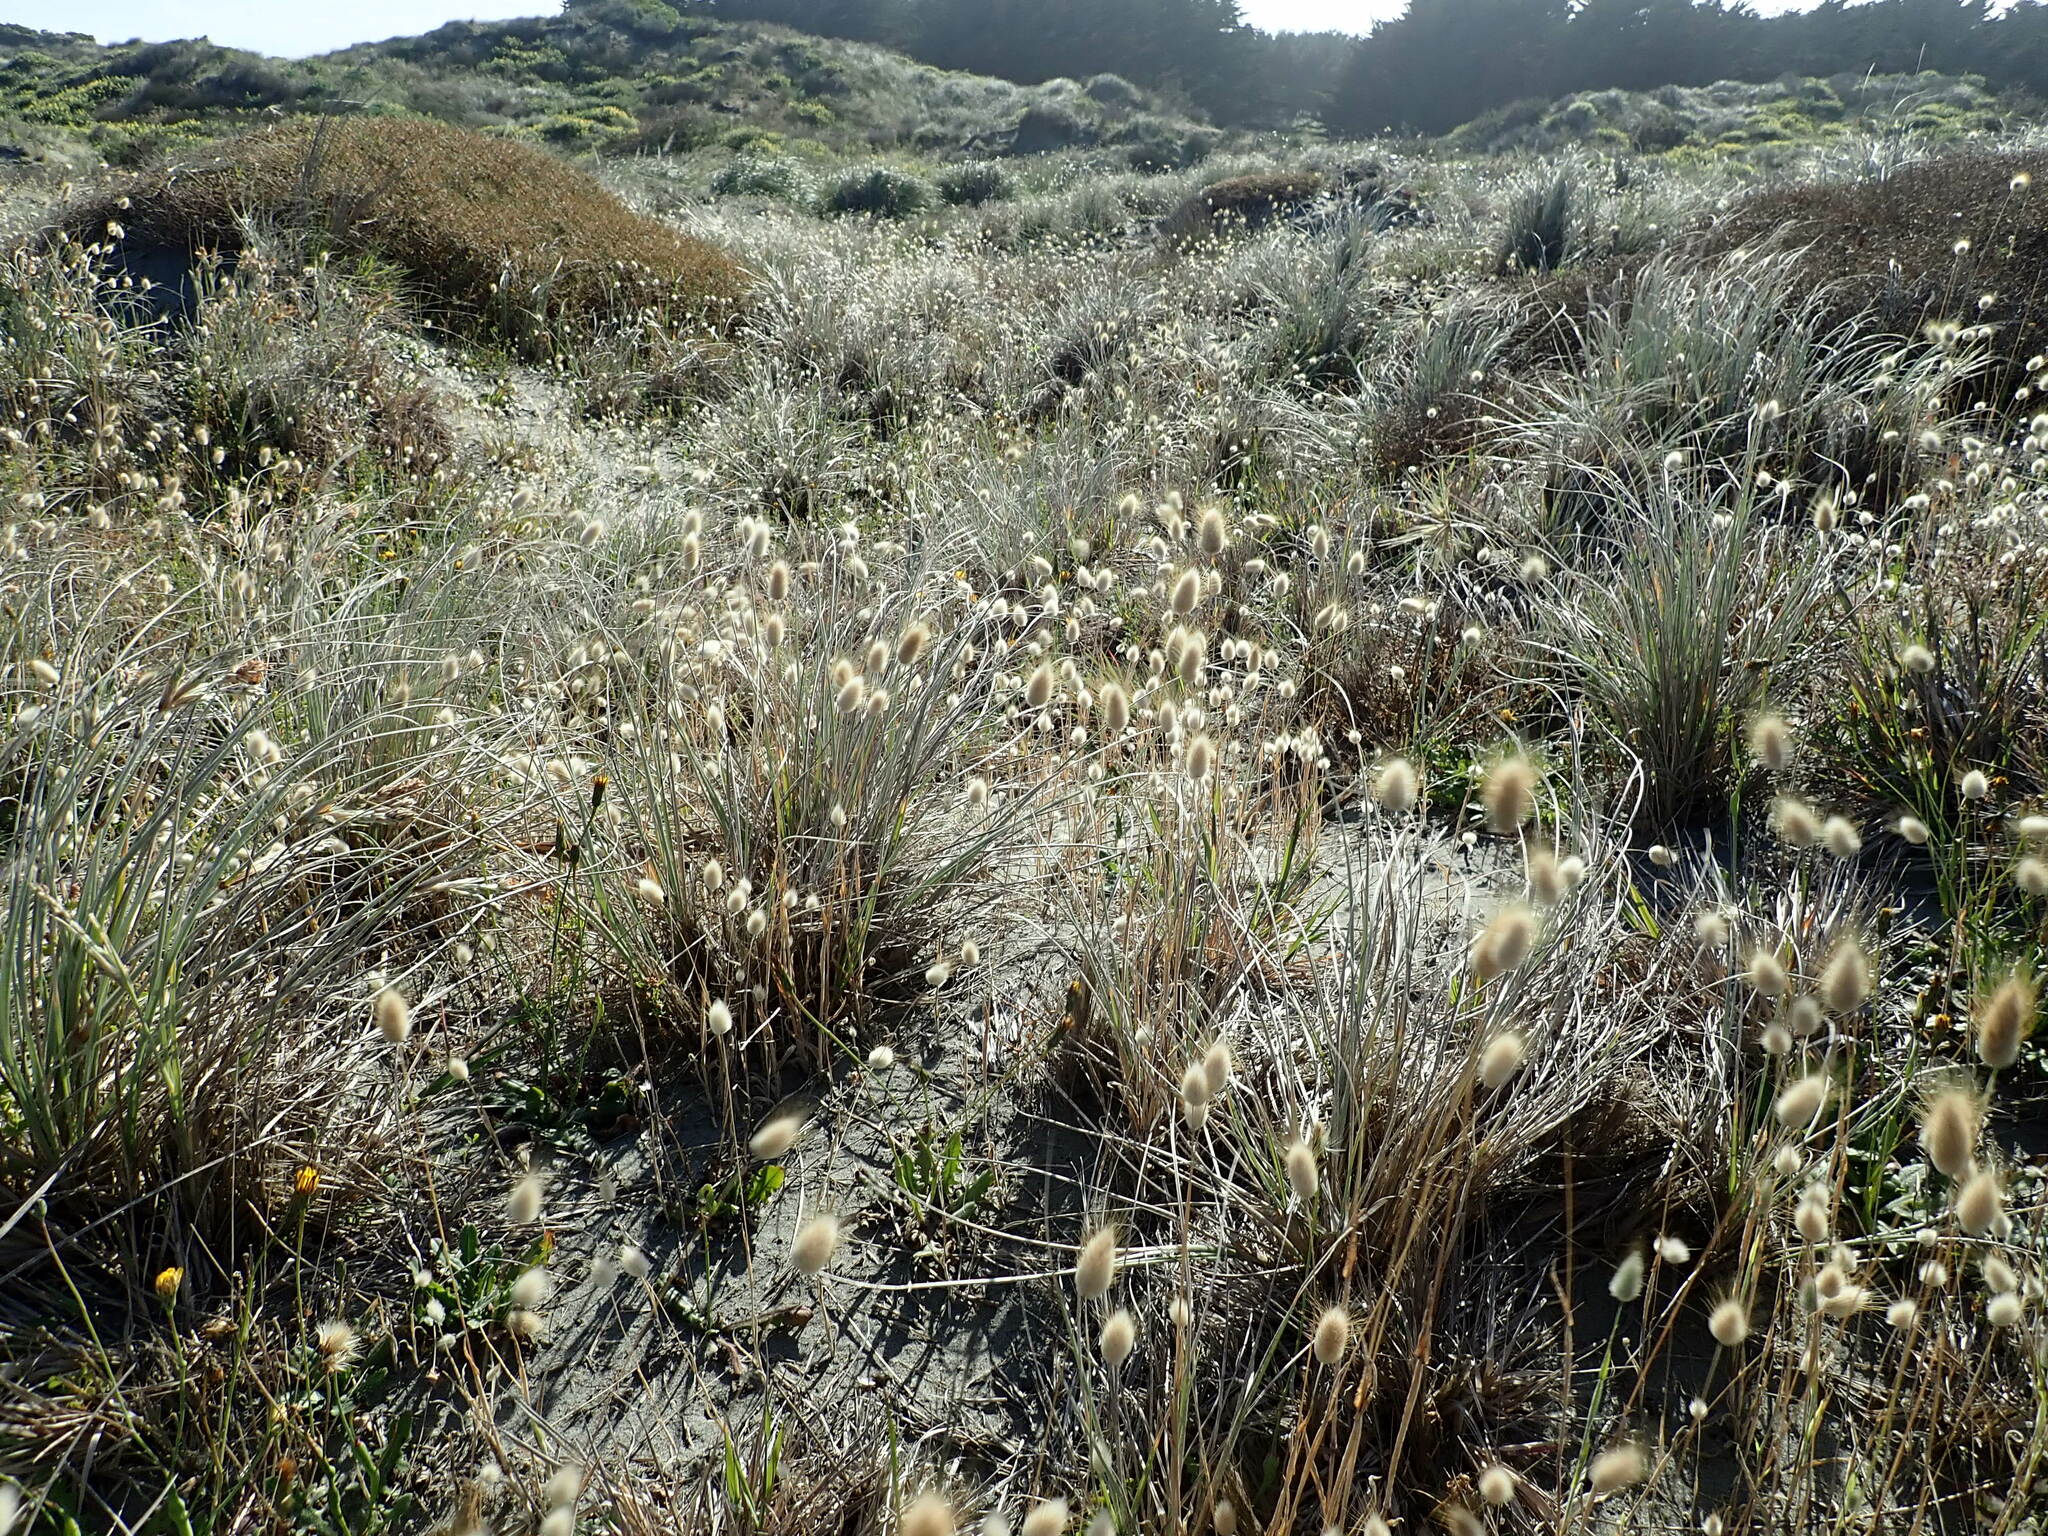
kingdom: Plantae
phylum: Tracheophyta
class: Liliopsida
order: Poales
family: Poaceae
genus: Lagurus
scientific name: Lagurus ovatus
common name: Hare's-tail
